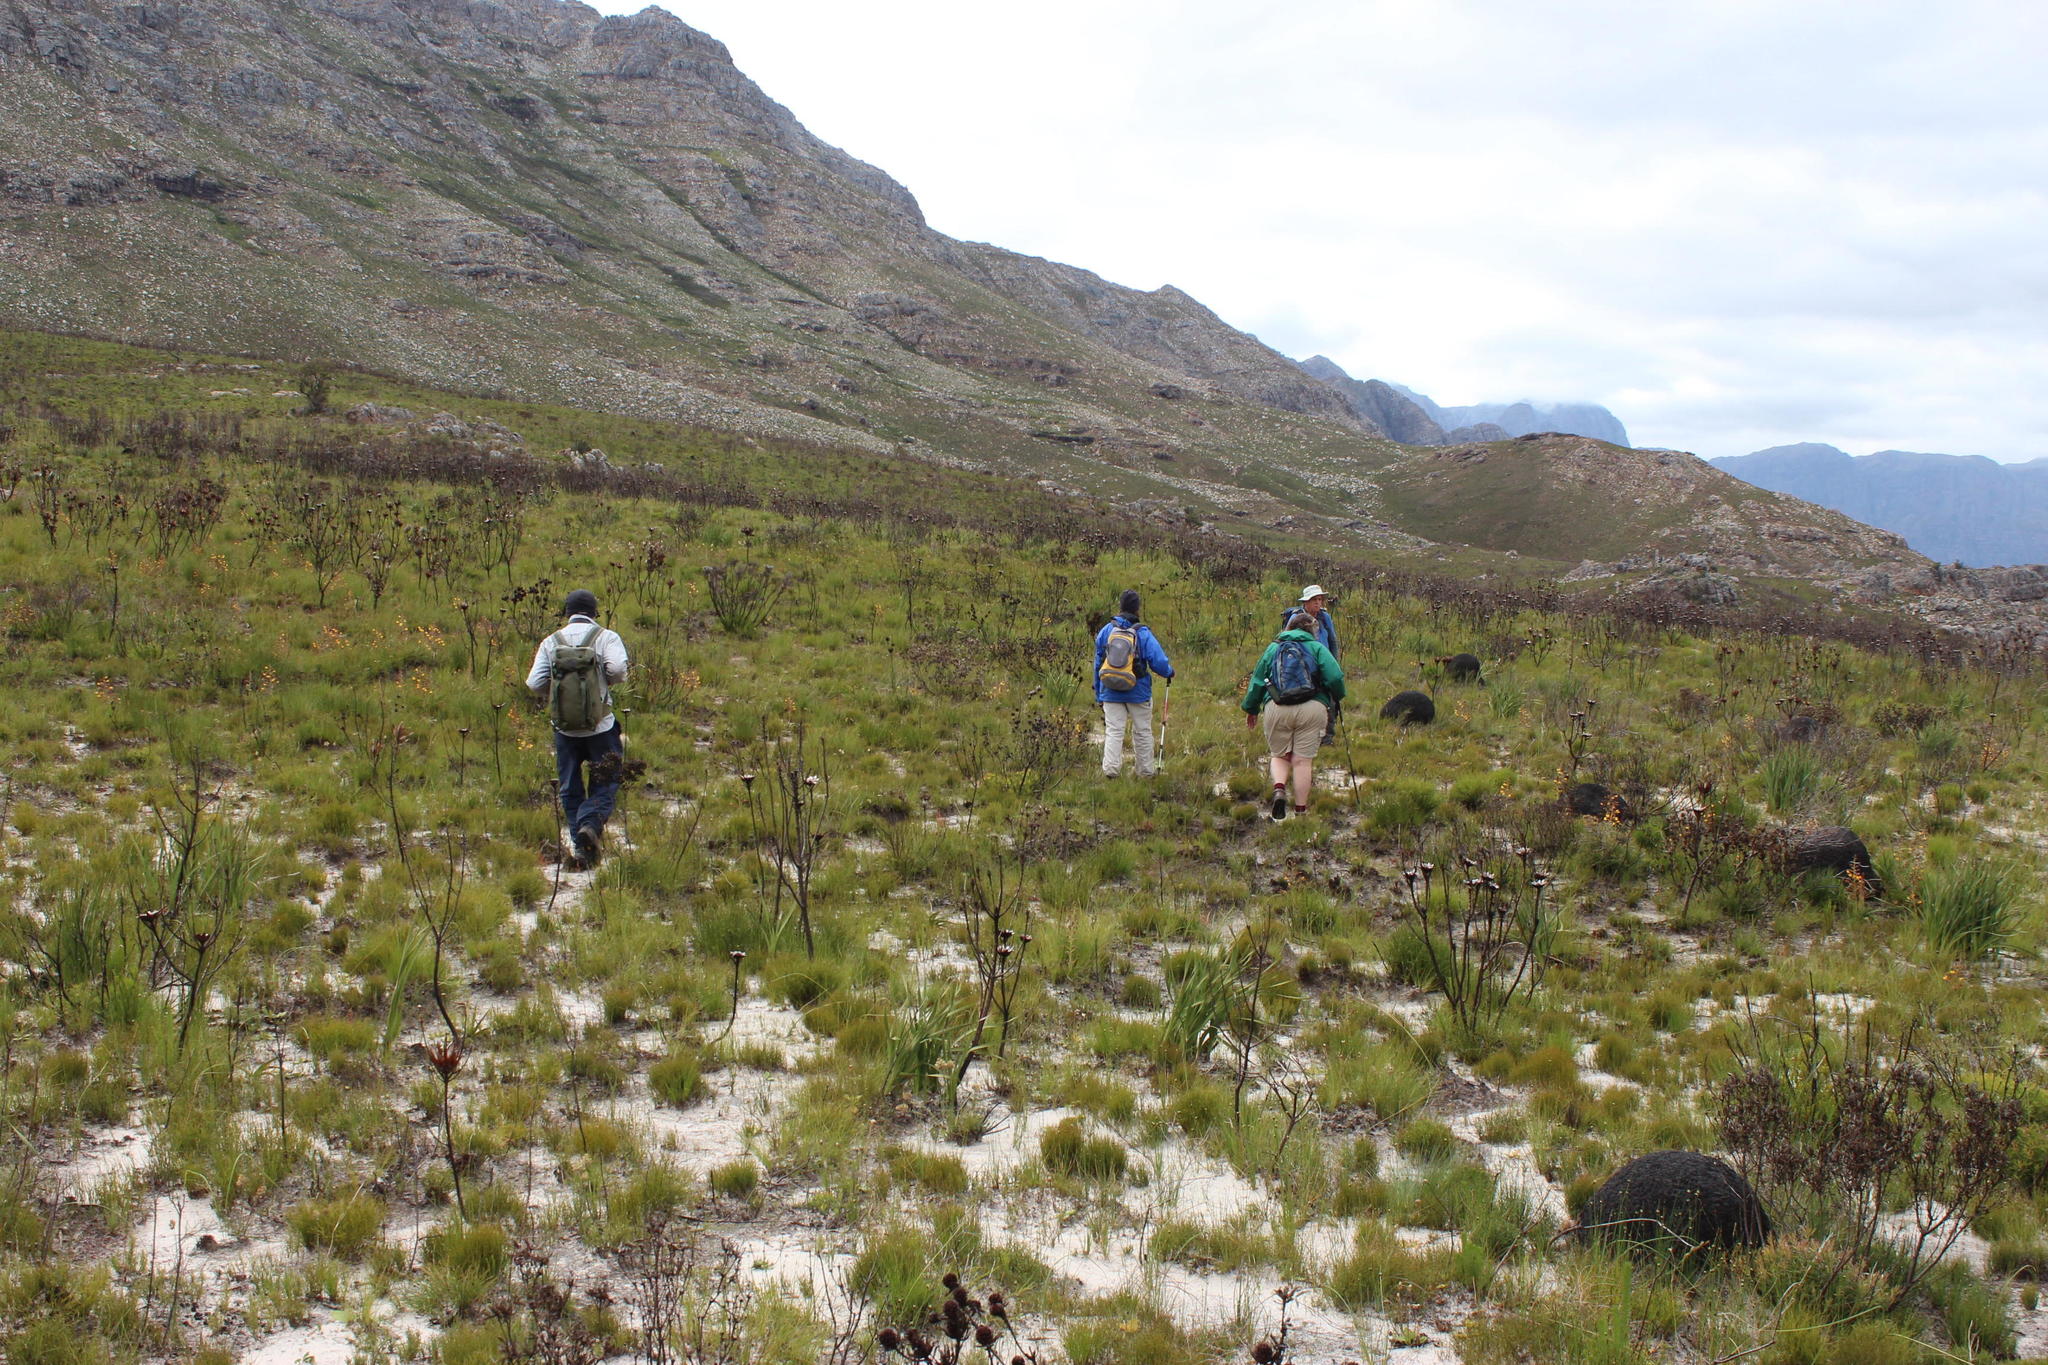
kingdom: Animalia
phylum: Arthropoda
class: Insecta
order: Blattodea
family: Termitidae
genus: Amitermes
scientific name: Amitermes hastatus
